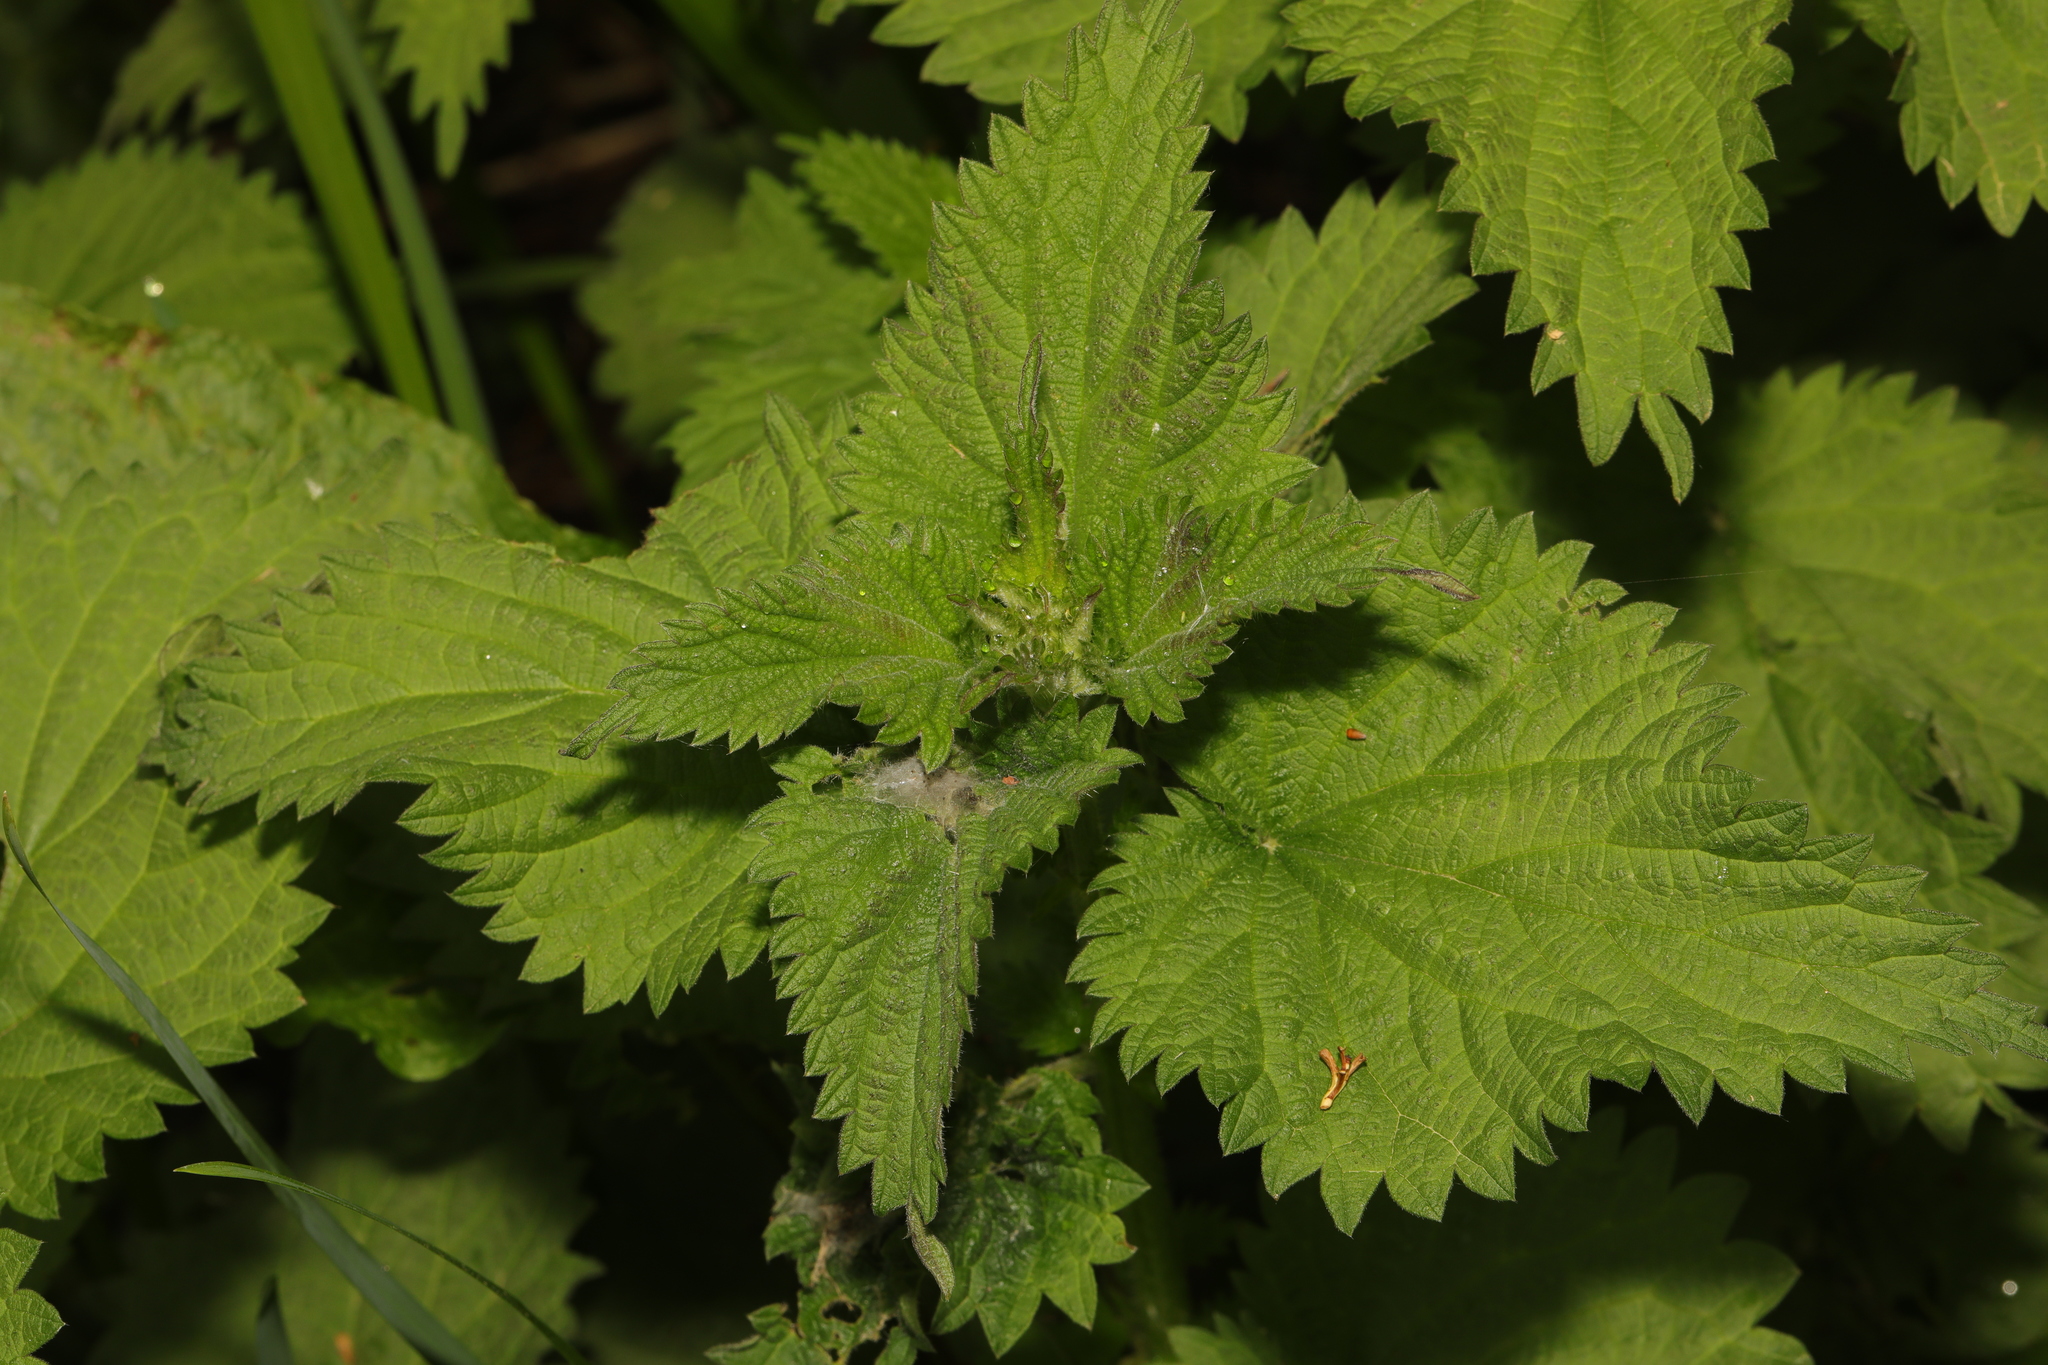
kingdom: Plantae
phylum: Tracheophyta
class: Magnoliopsida
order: Rosales
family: Urticaceae
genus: Urtica
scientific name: Urtica dioica
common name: Common nettle
